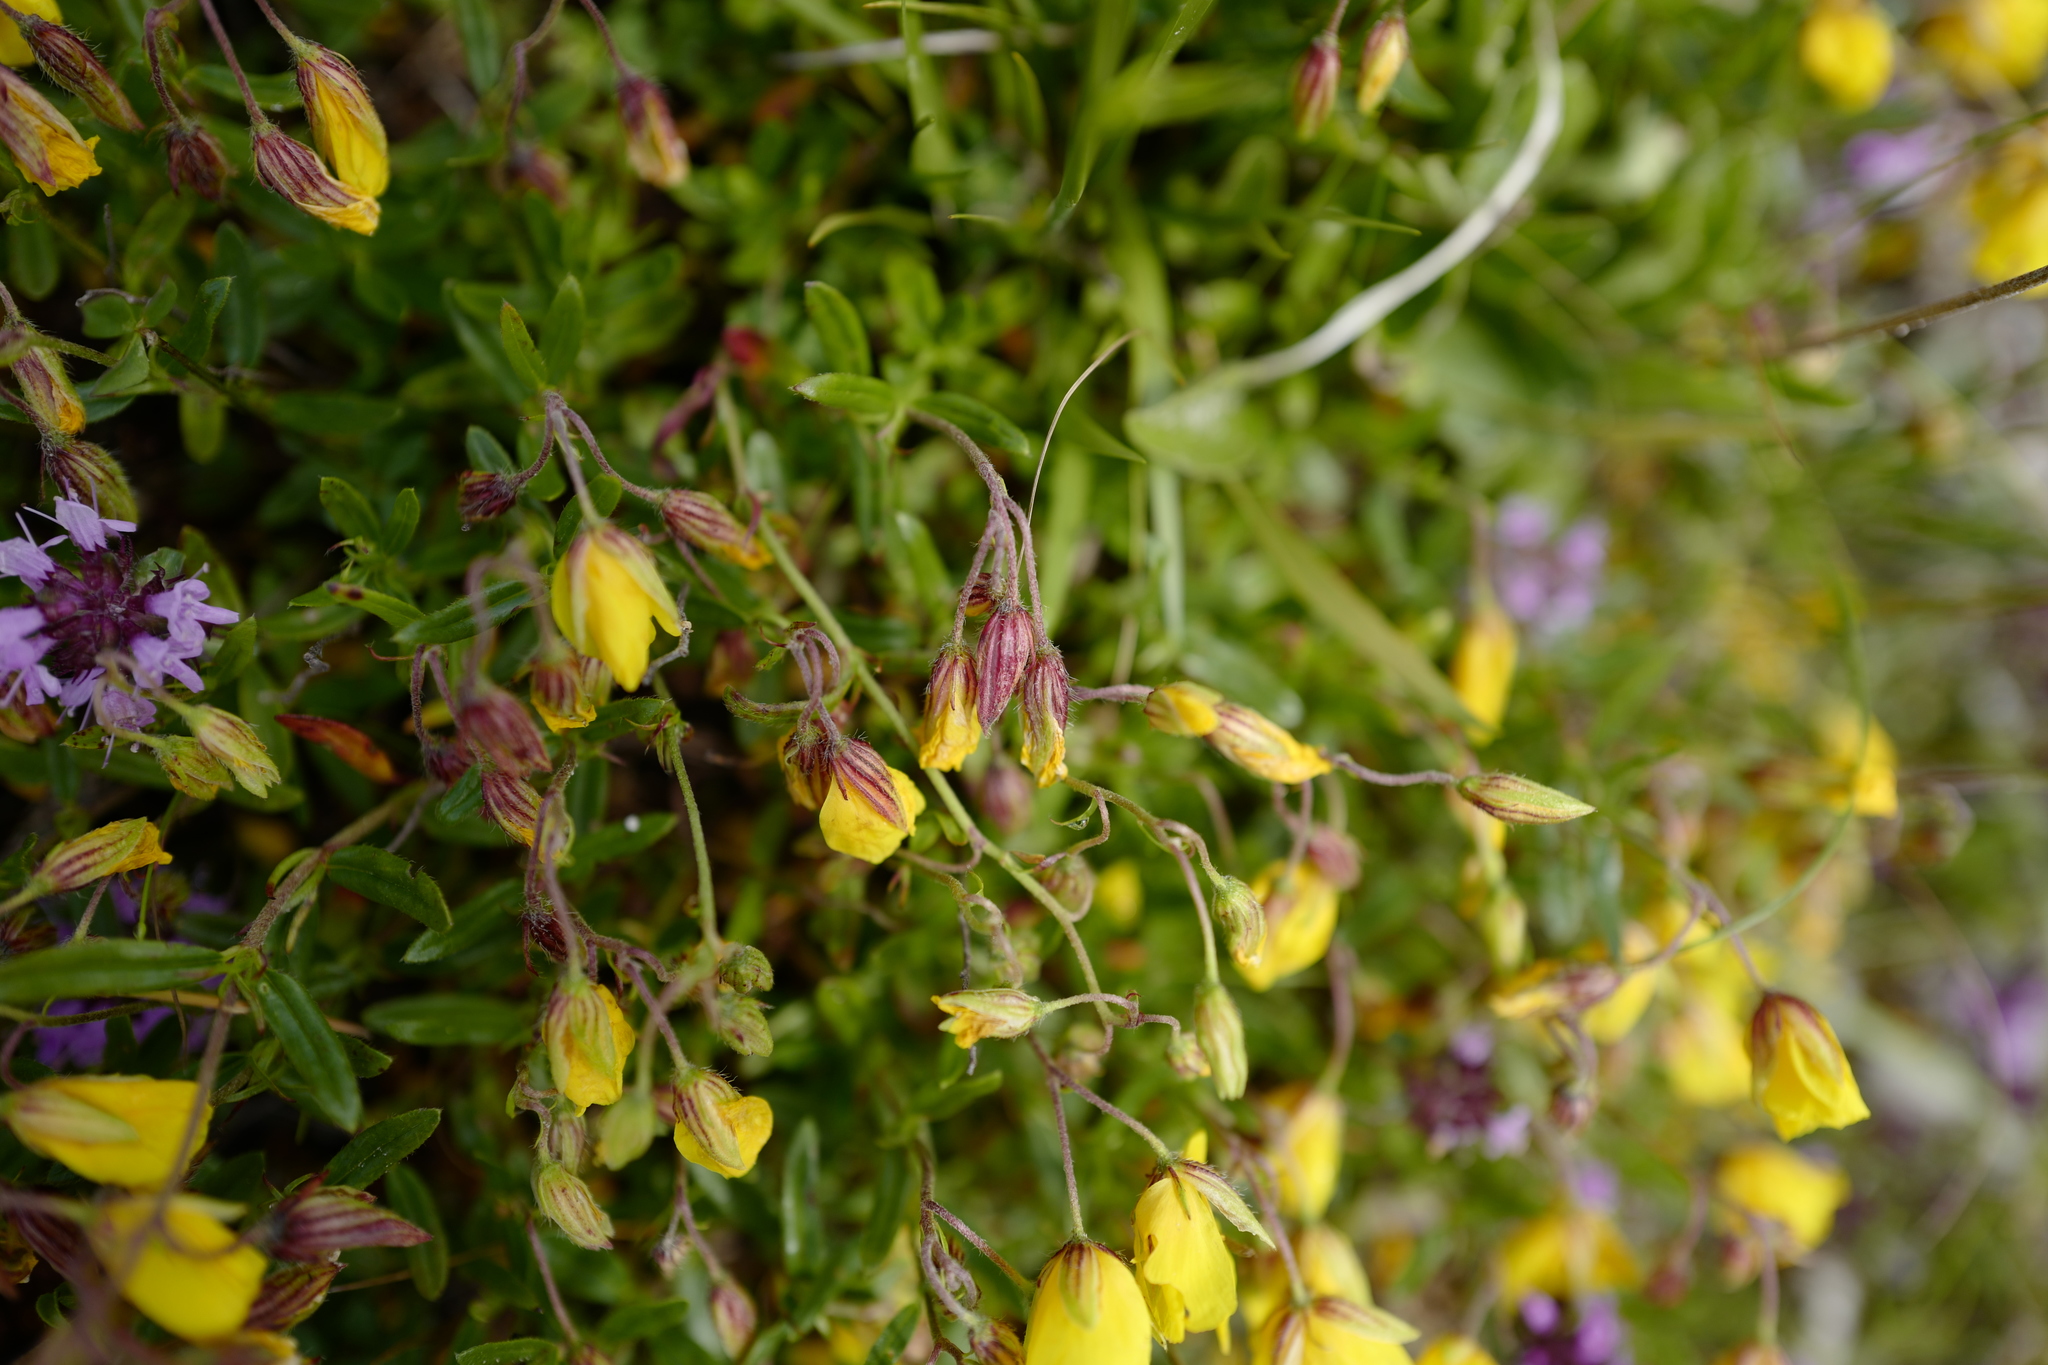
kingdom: Plantae
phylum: Tracheophyta
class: Magnoliopsida
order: Malvales
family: Cistaceae
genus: Helianthemum
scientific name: Helianthemum nummularium
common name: Common rock-rose
